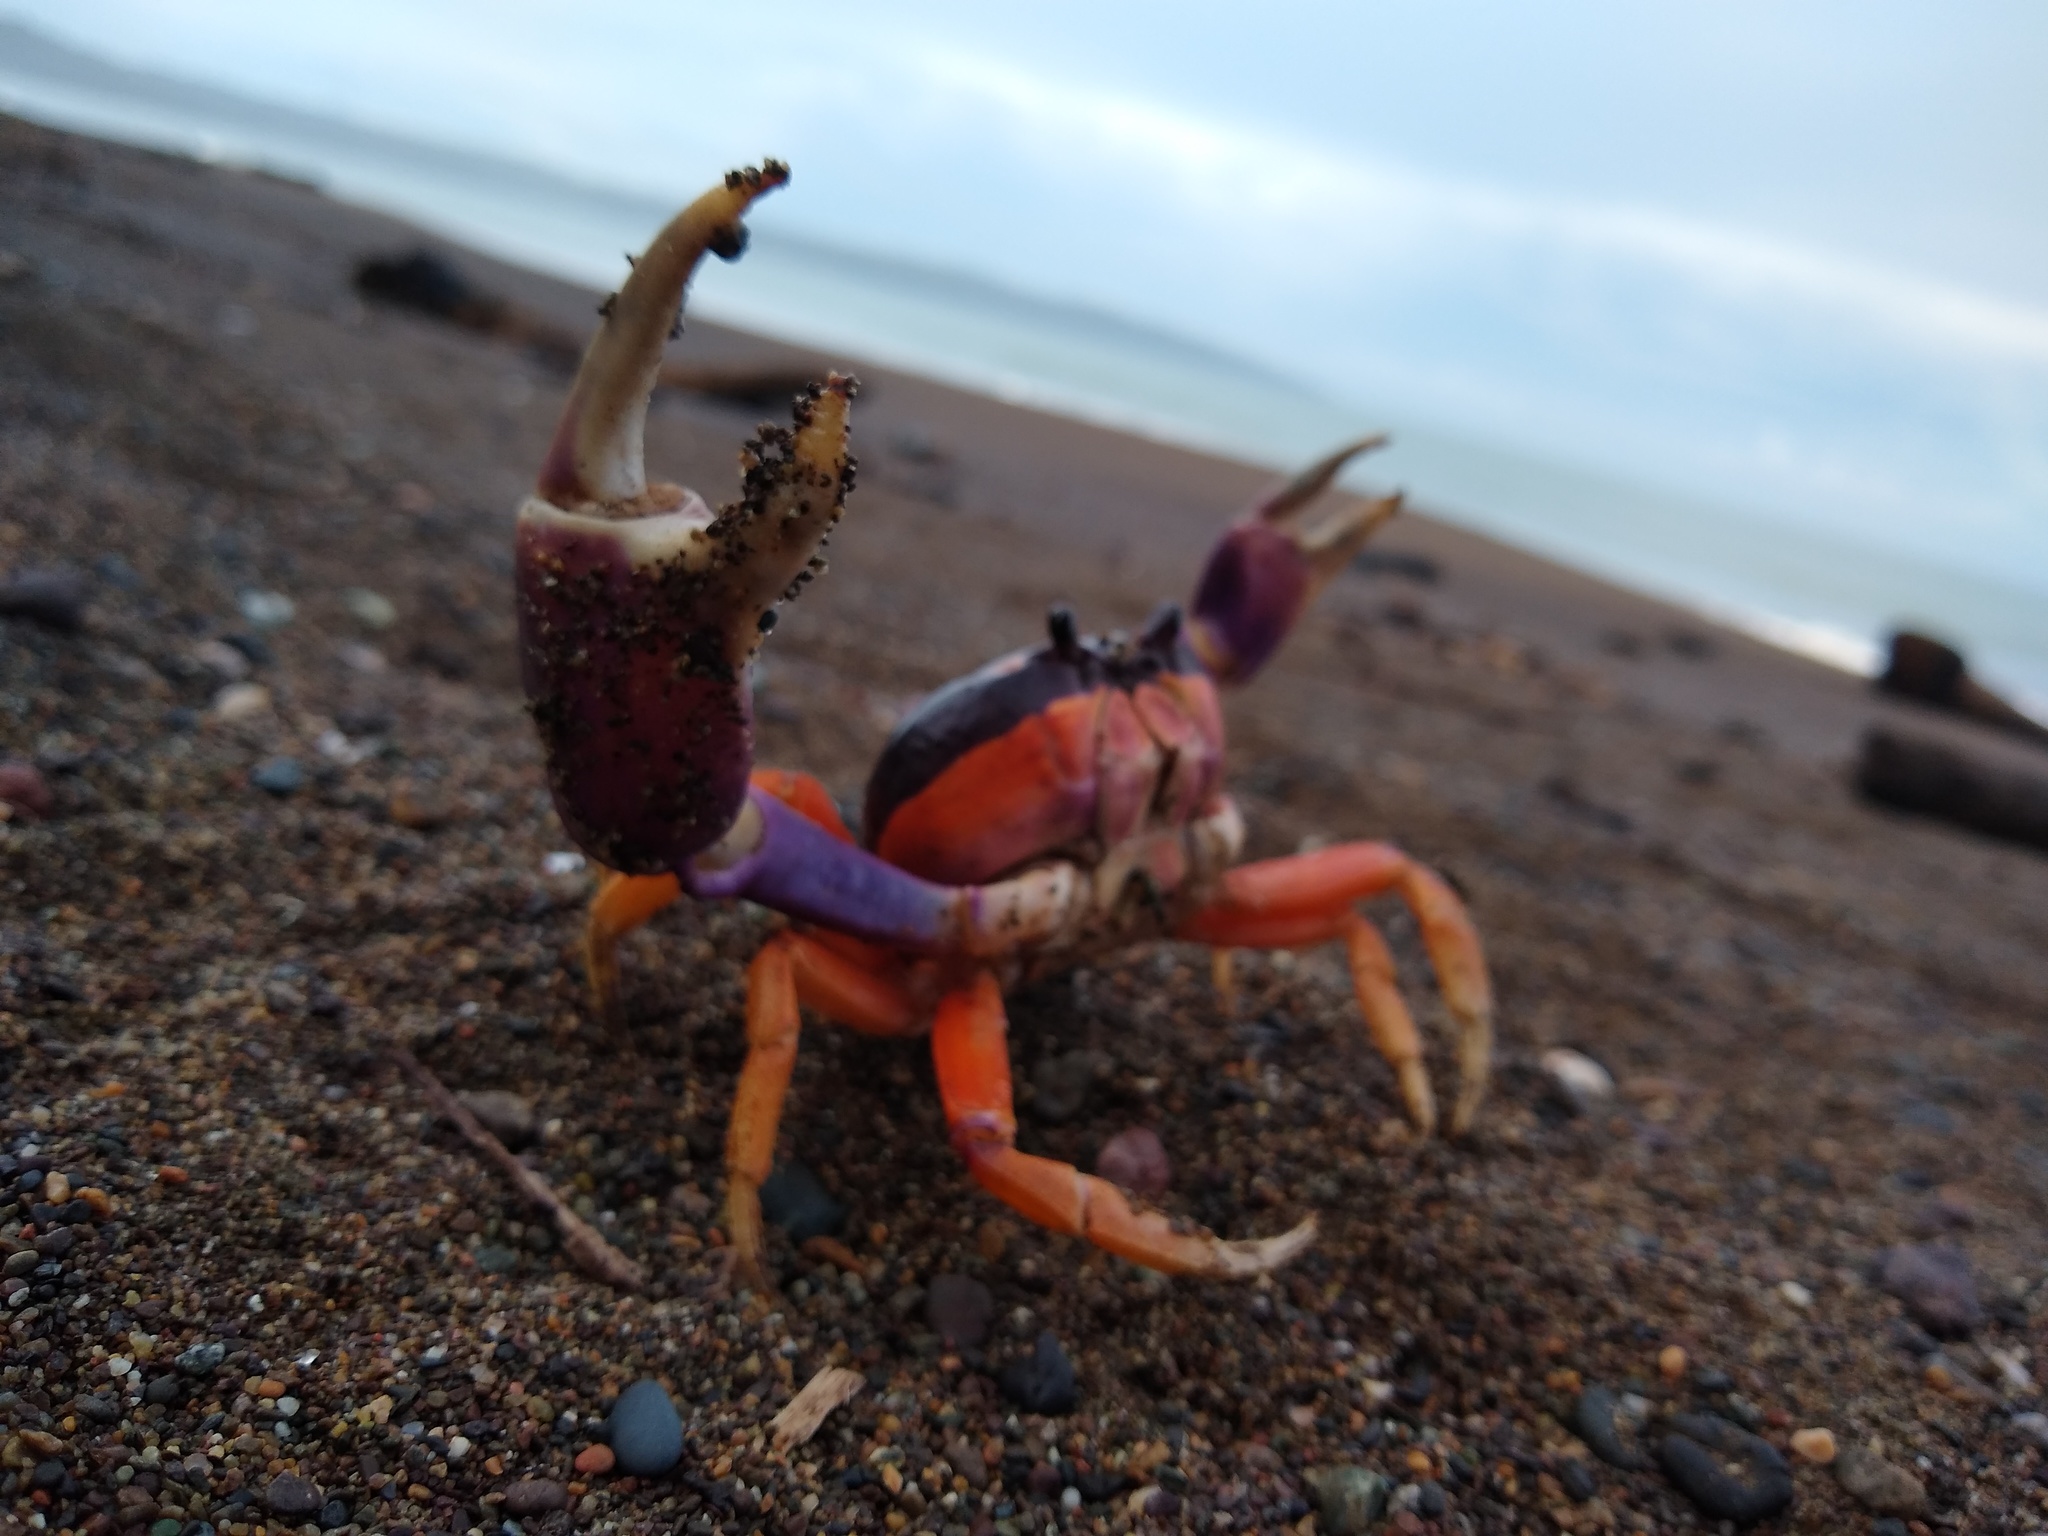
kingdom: Animalia
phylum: Arthropoda
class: Malacostraca
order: Decapoda
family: Gecarcinidae
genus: Gecarcinus
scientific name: Gecarcinus quadratus
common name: Halloween crab
